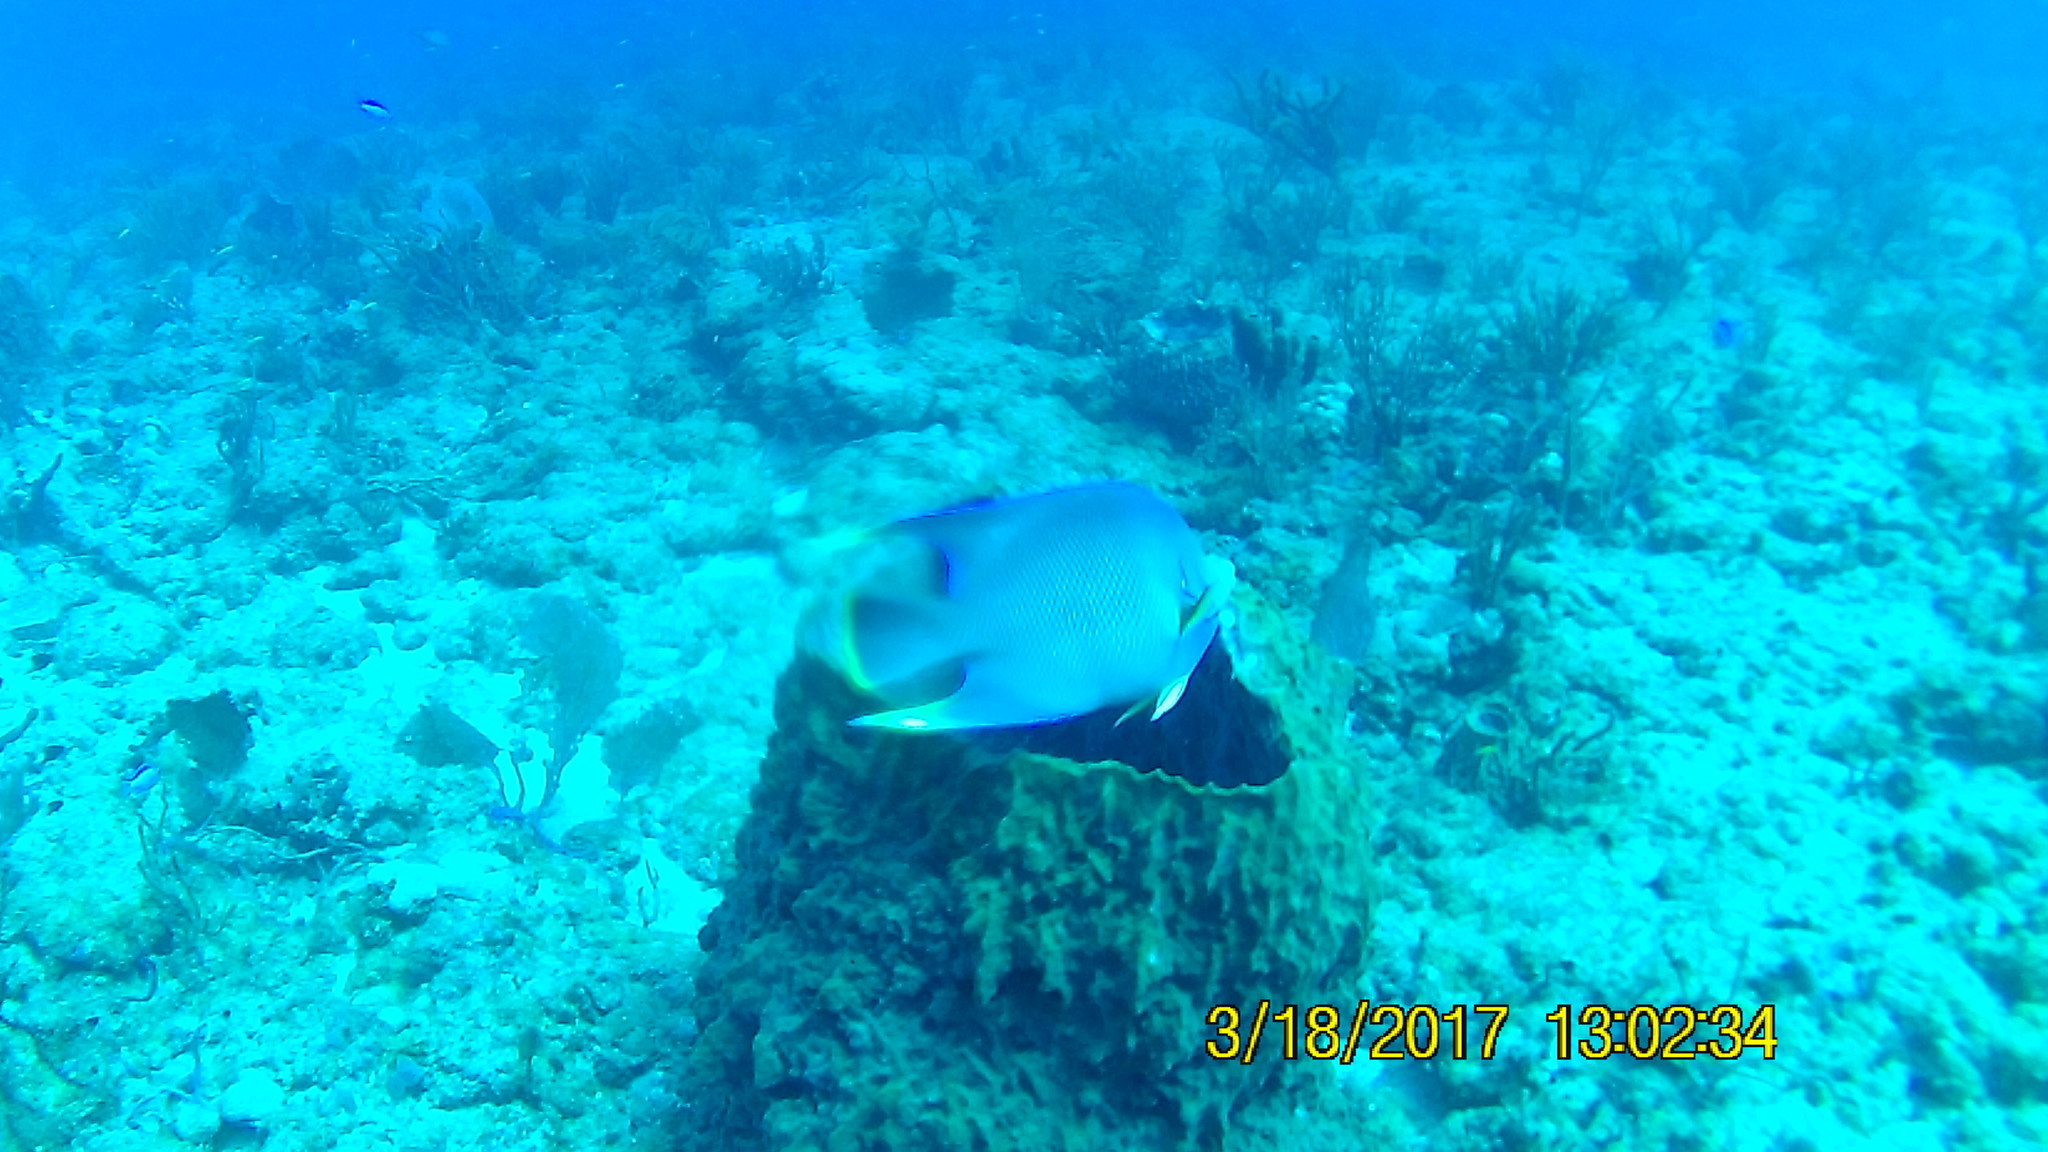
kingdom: Animalia
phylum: Chordata
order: Perciformes
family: Pomacanthidae
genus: Holacanthus
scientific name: Holacanthus bermudensis
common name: Blue angelfish
